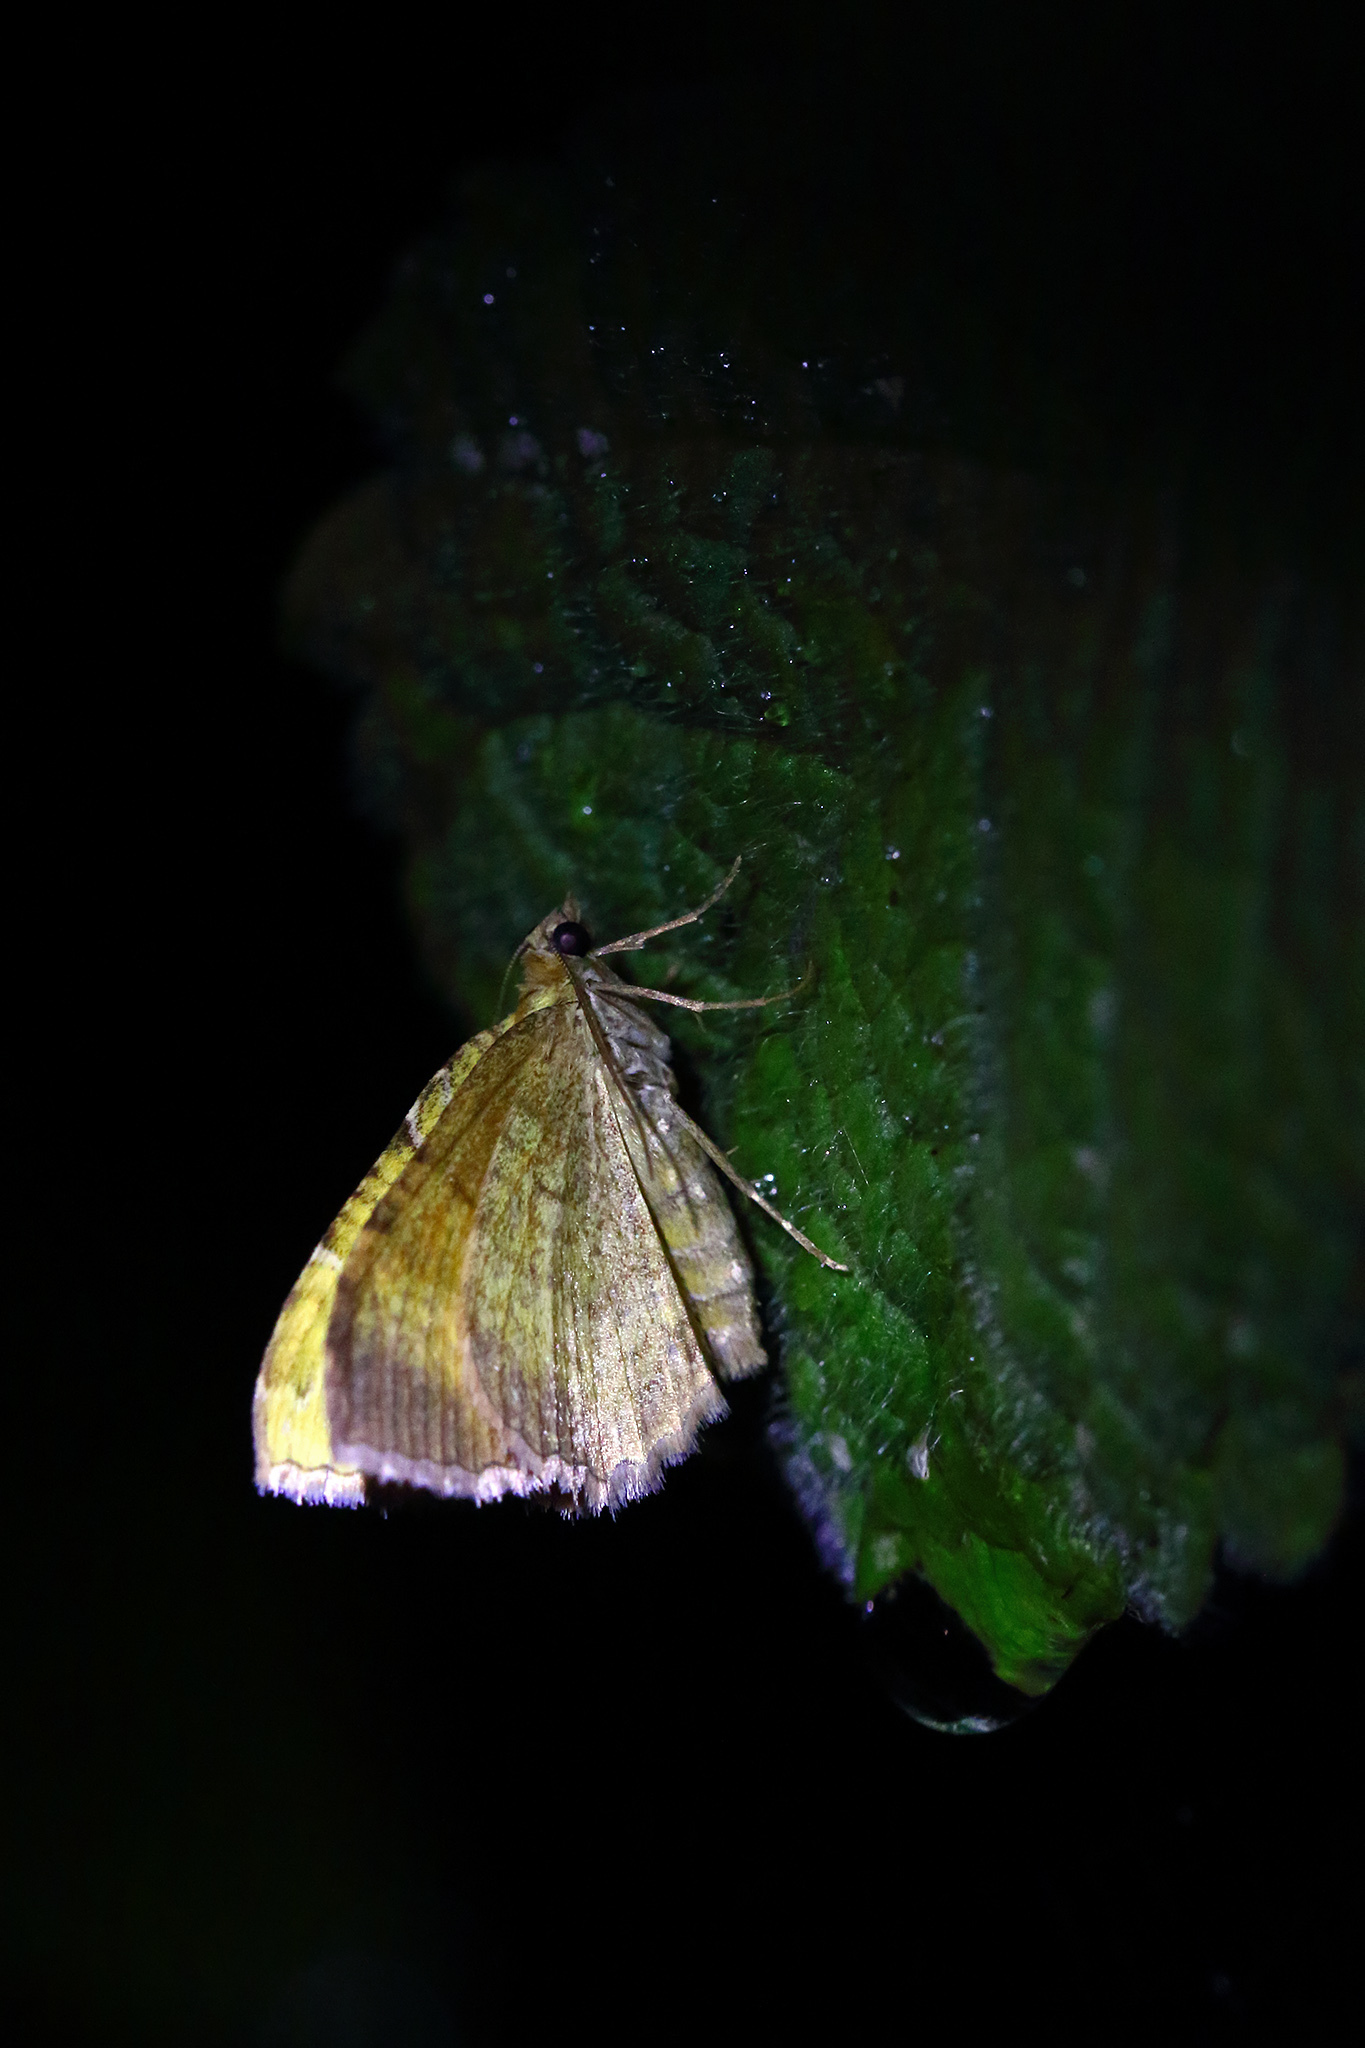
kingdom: Animalia
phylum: Arthropoda
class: Insecta
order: Lepidoptera
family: Geometridae
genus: Camptogramma
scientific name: Camptogramma bilineata
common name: Yellow shell
